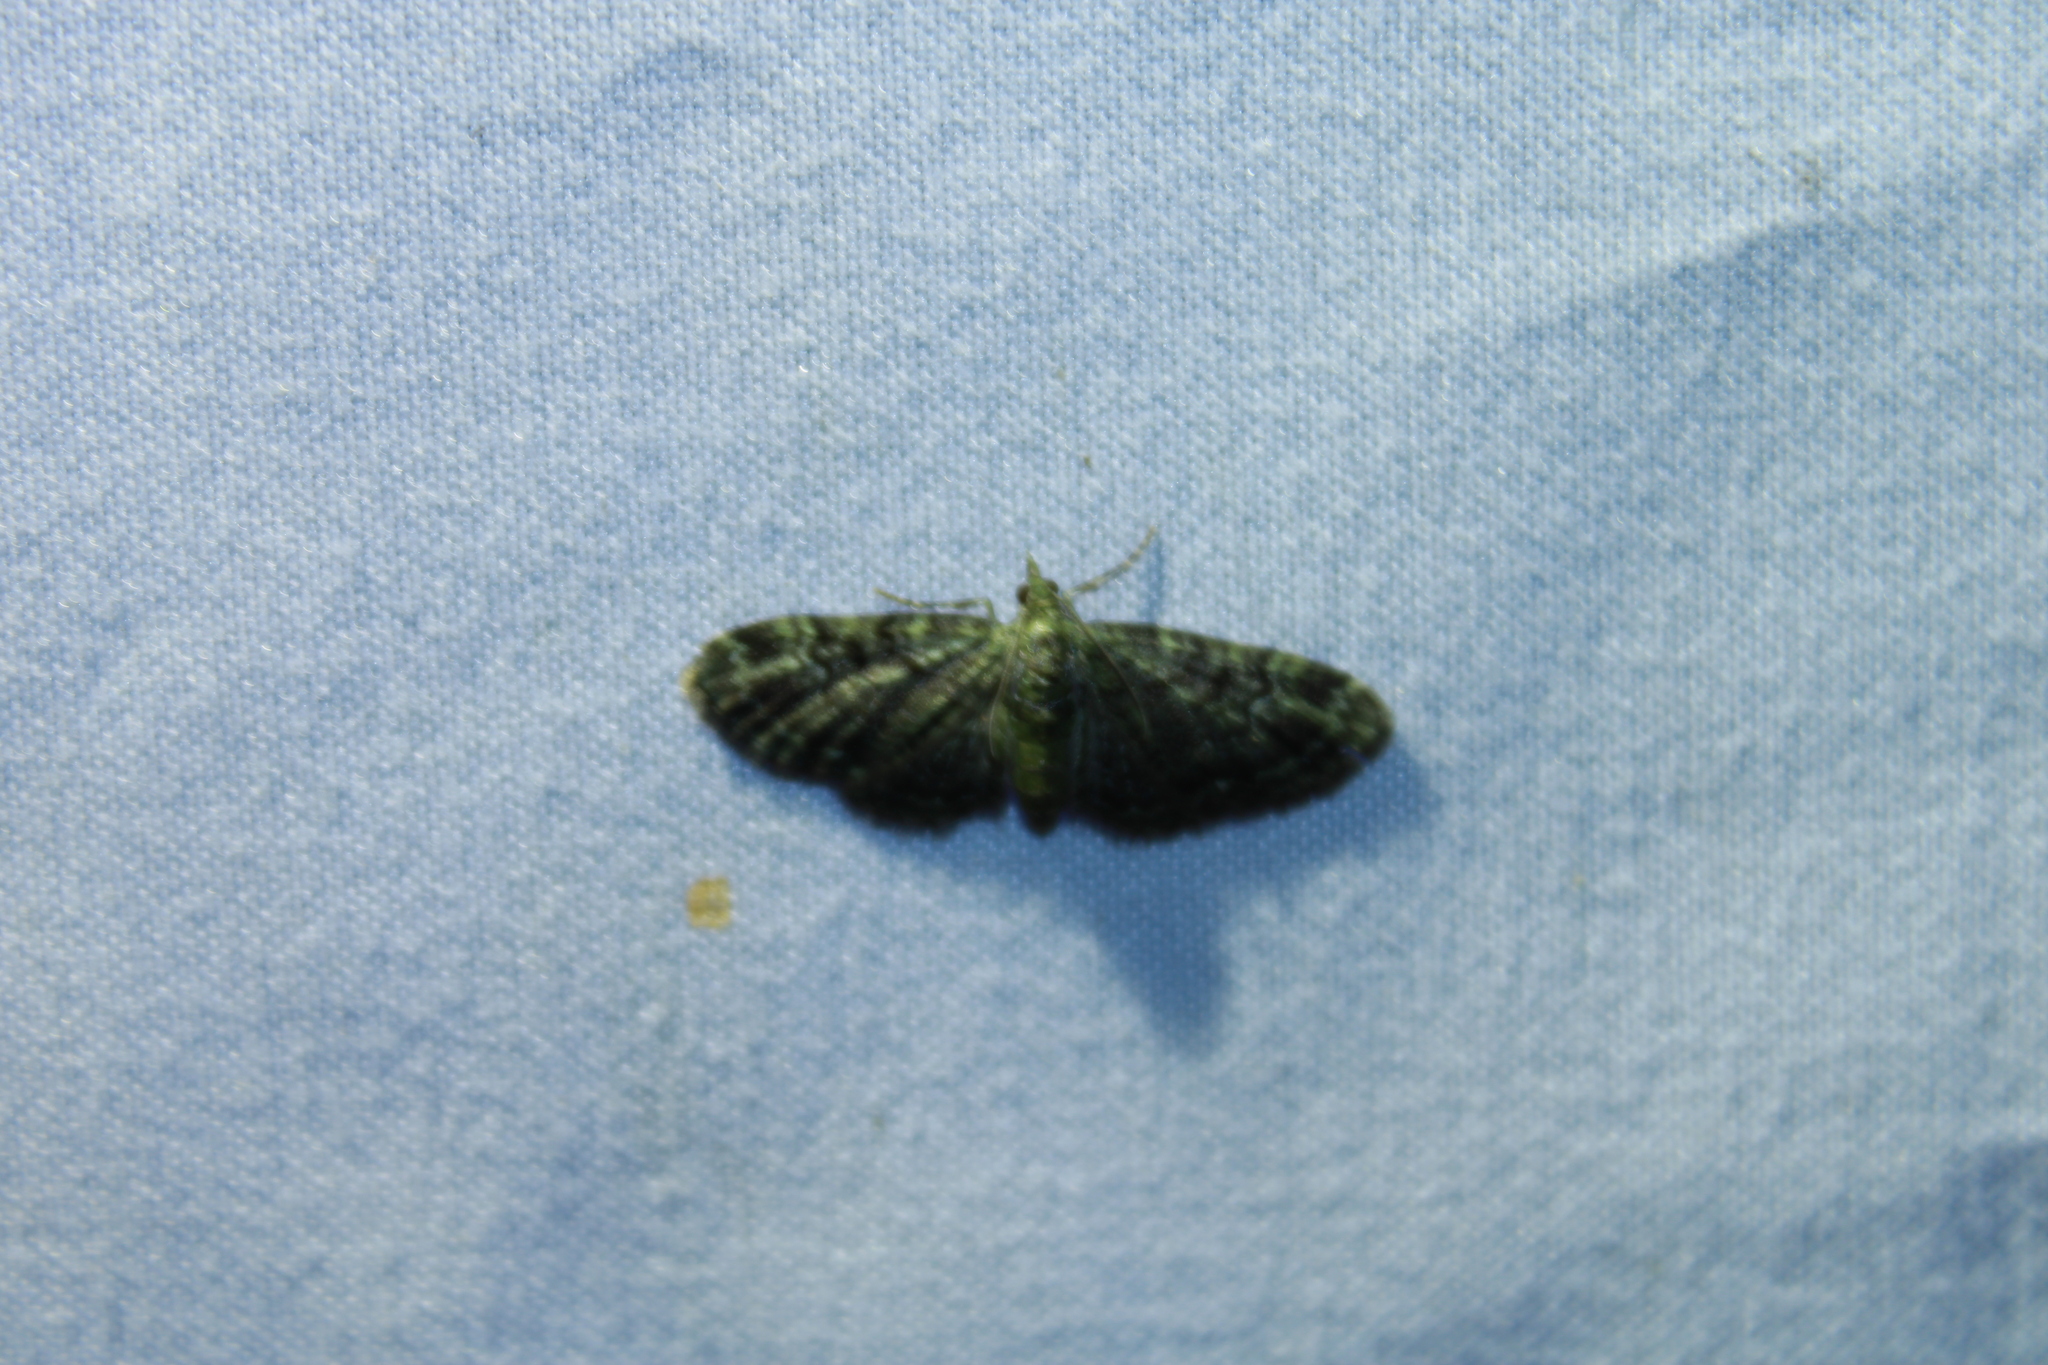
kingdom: Animalia
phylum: Arthropoda
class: Insecta
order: Lepidoptera
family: Geometridae
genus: Pasiphila
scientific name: Pasiphila rectangulata
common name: Green pug
